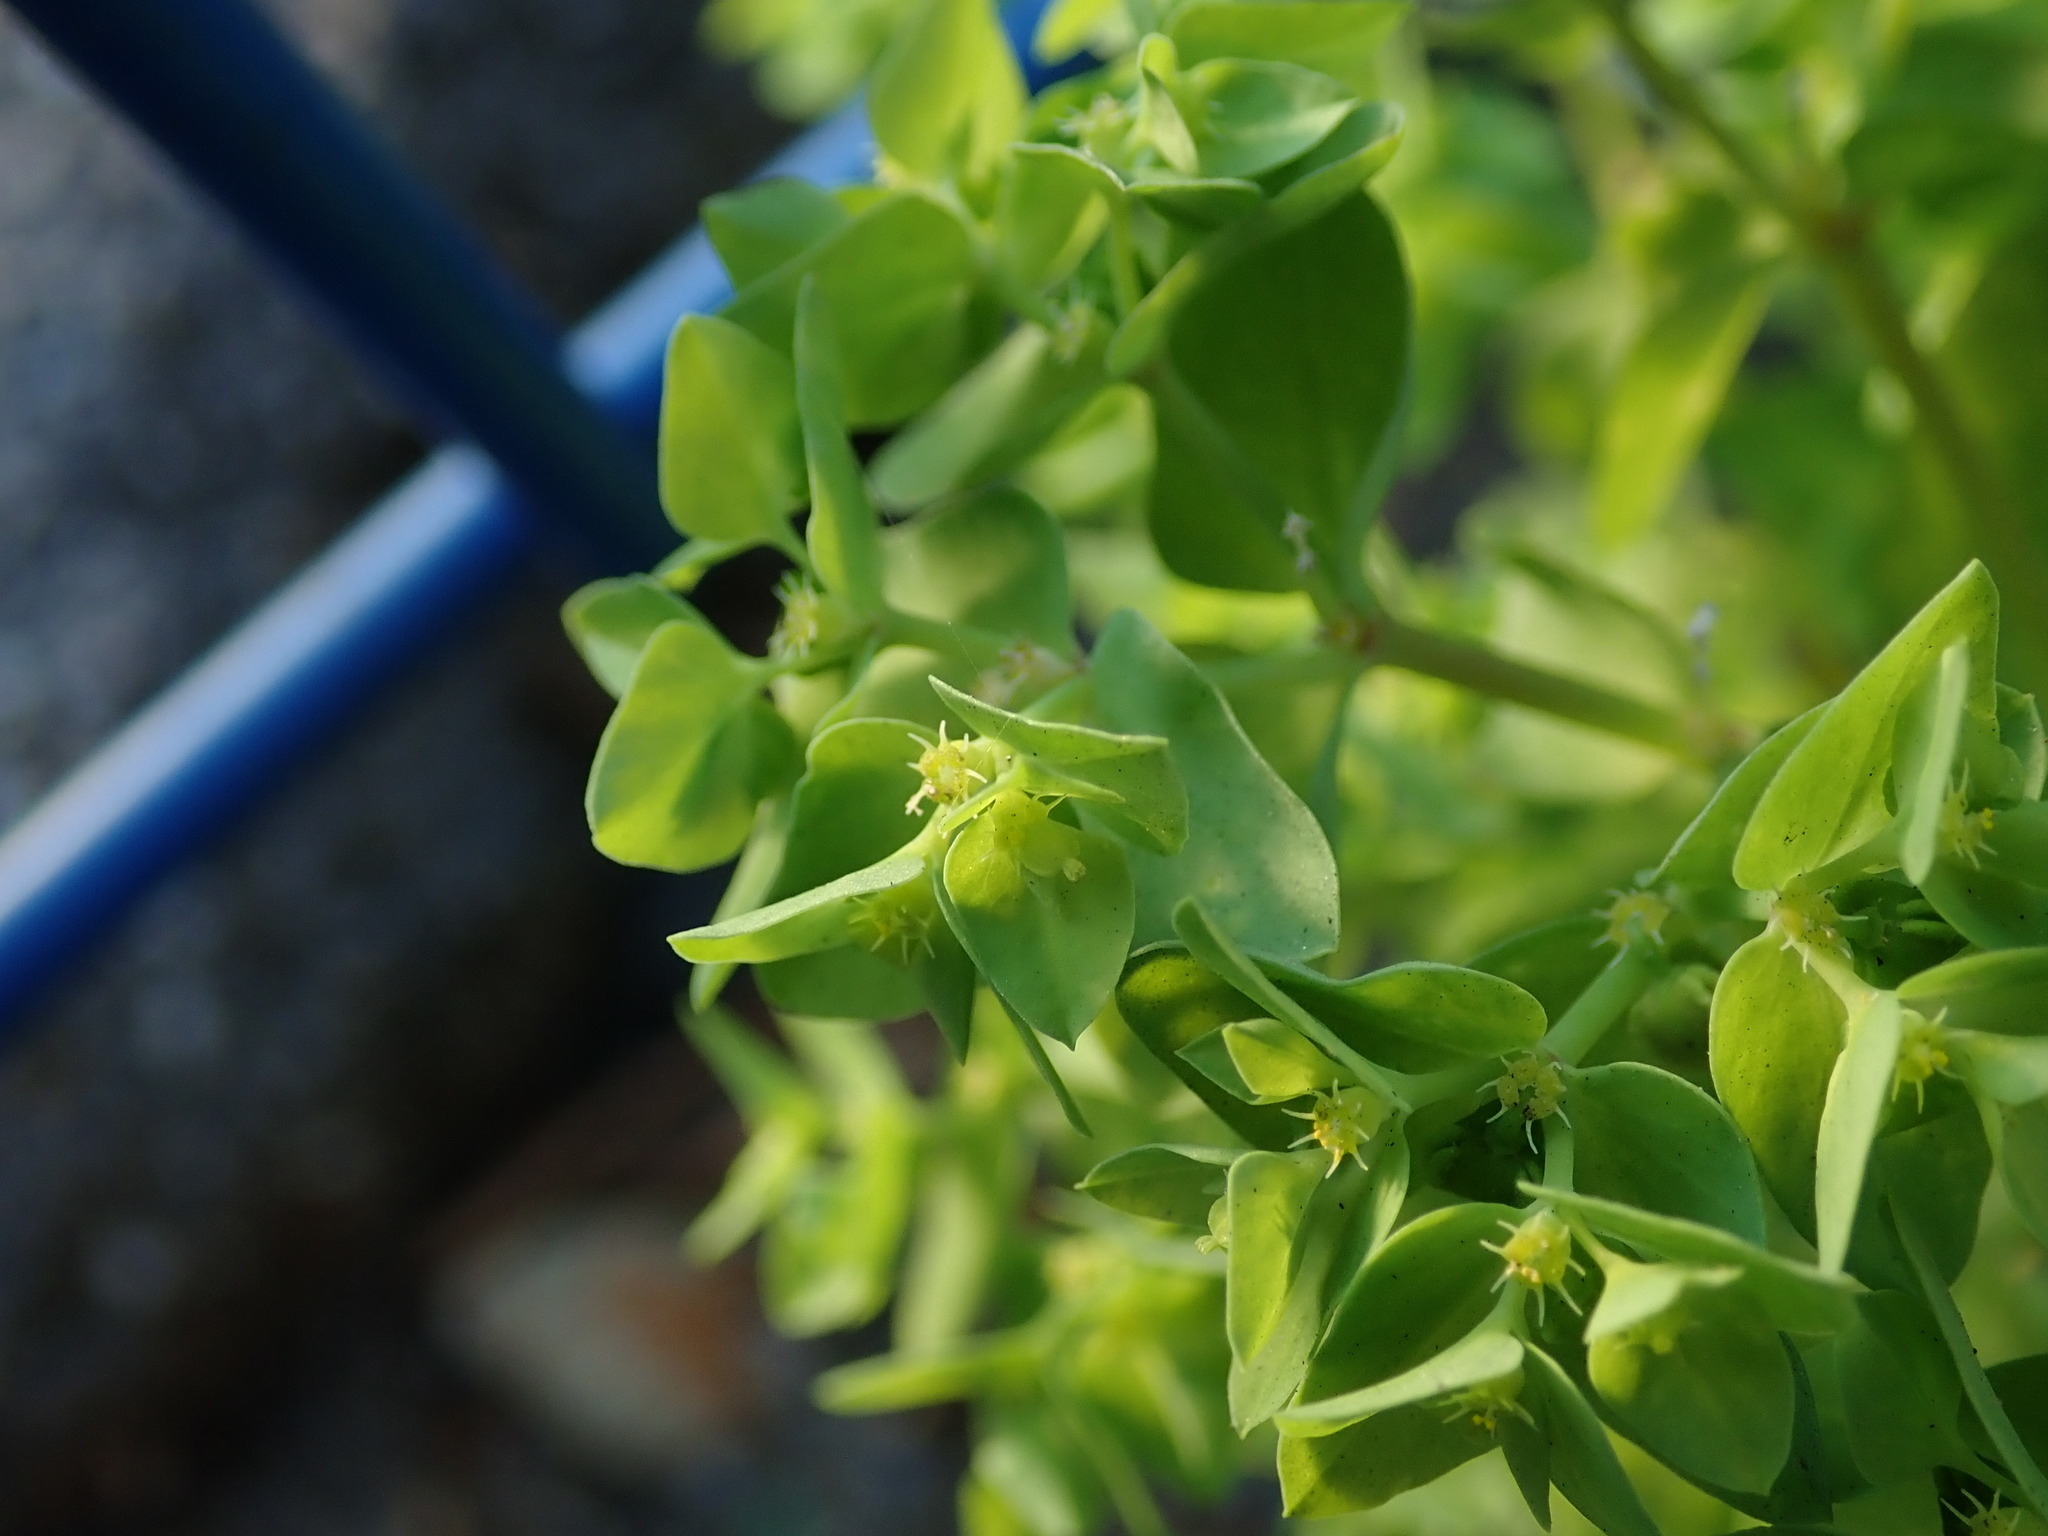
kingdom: Plantae
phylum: Tracheophyta
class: Magnoliopsida
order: Malpighiales
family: Euphorbiaceae
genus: Euphorbia
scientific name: Euphorbia peplus
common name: Petty spurge
